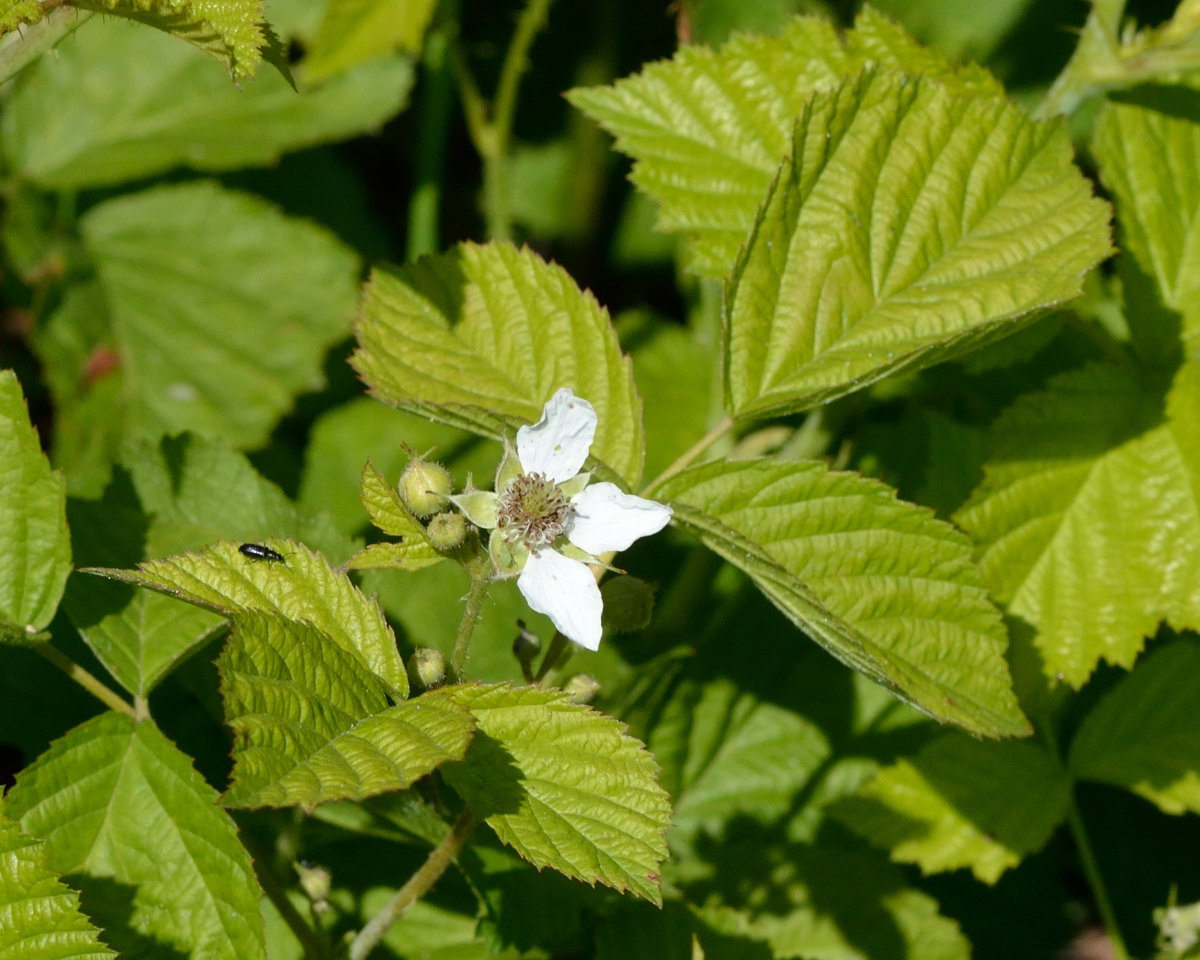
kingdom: Plantae
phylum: Tracheophyta
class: Magnoliopsida
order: Rosales
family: Rosaceae
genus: Rubus
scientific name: Rubus caesius
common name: Dewberry
